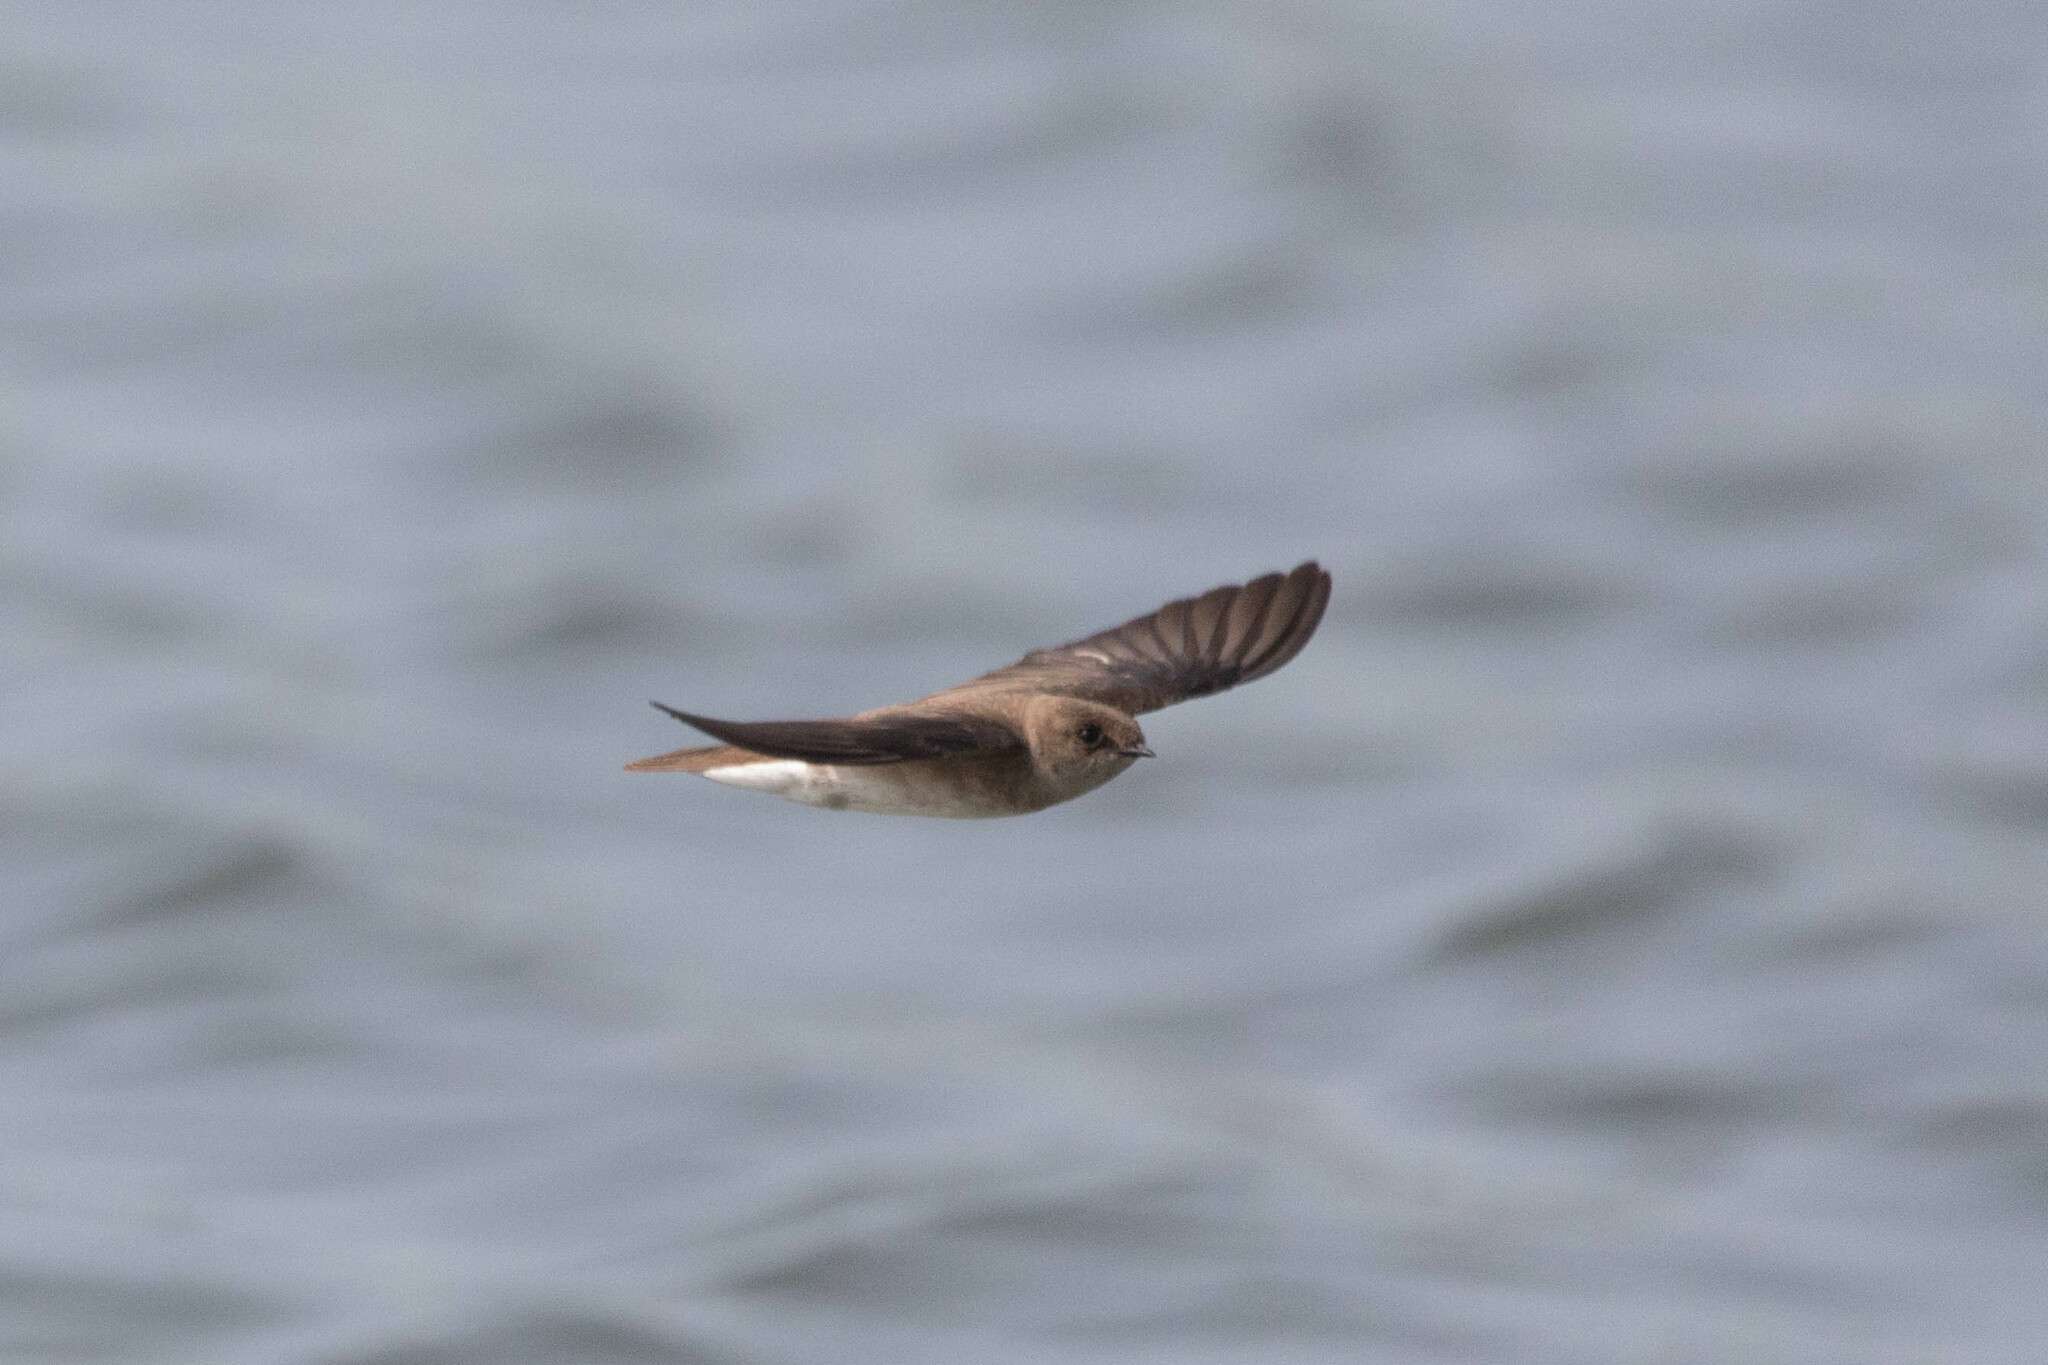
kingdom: Animalia
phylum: Chordata
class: Aves
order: Passeriformes
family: Hirundinidae
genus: Stelgidopteryx
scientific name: Stelgidopteryx serripennis
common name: Northern rough-winged swallow
